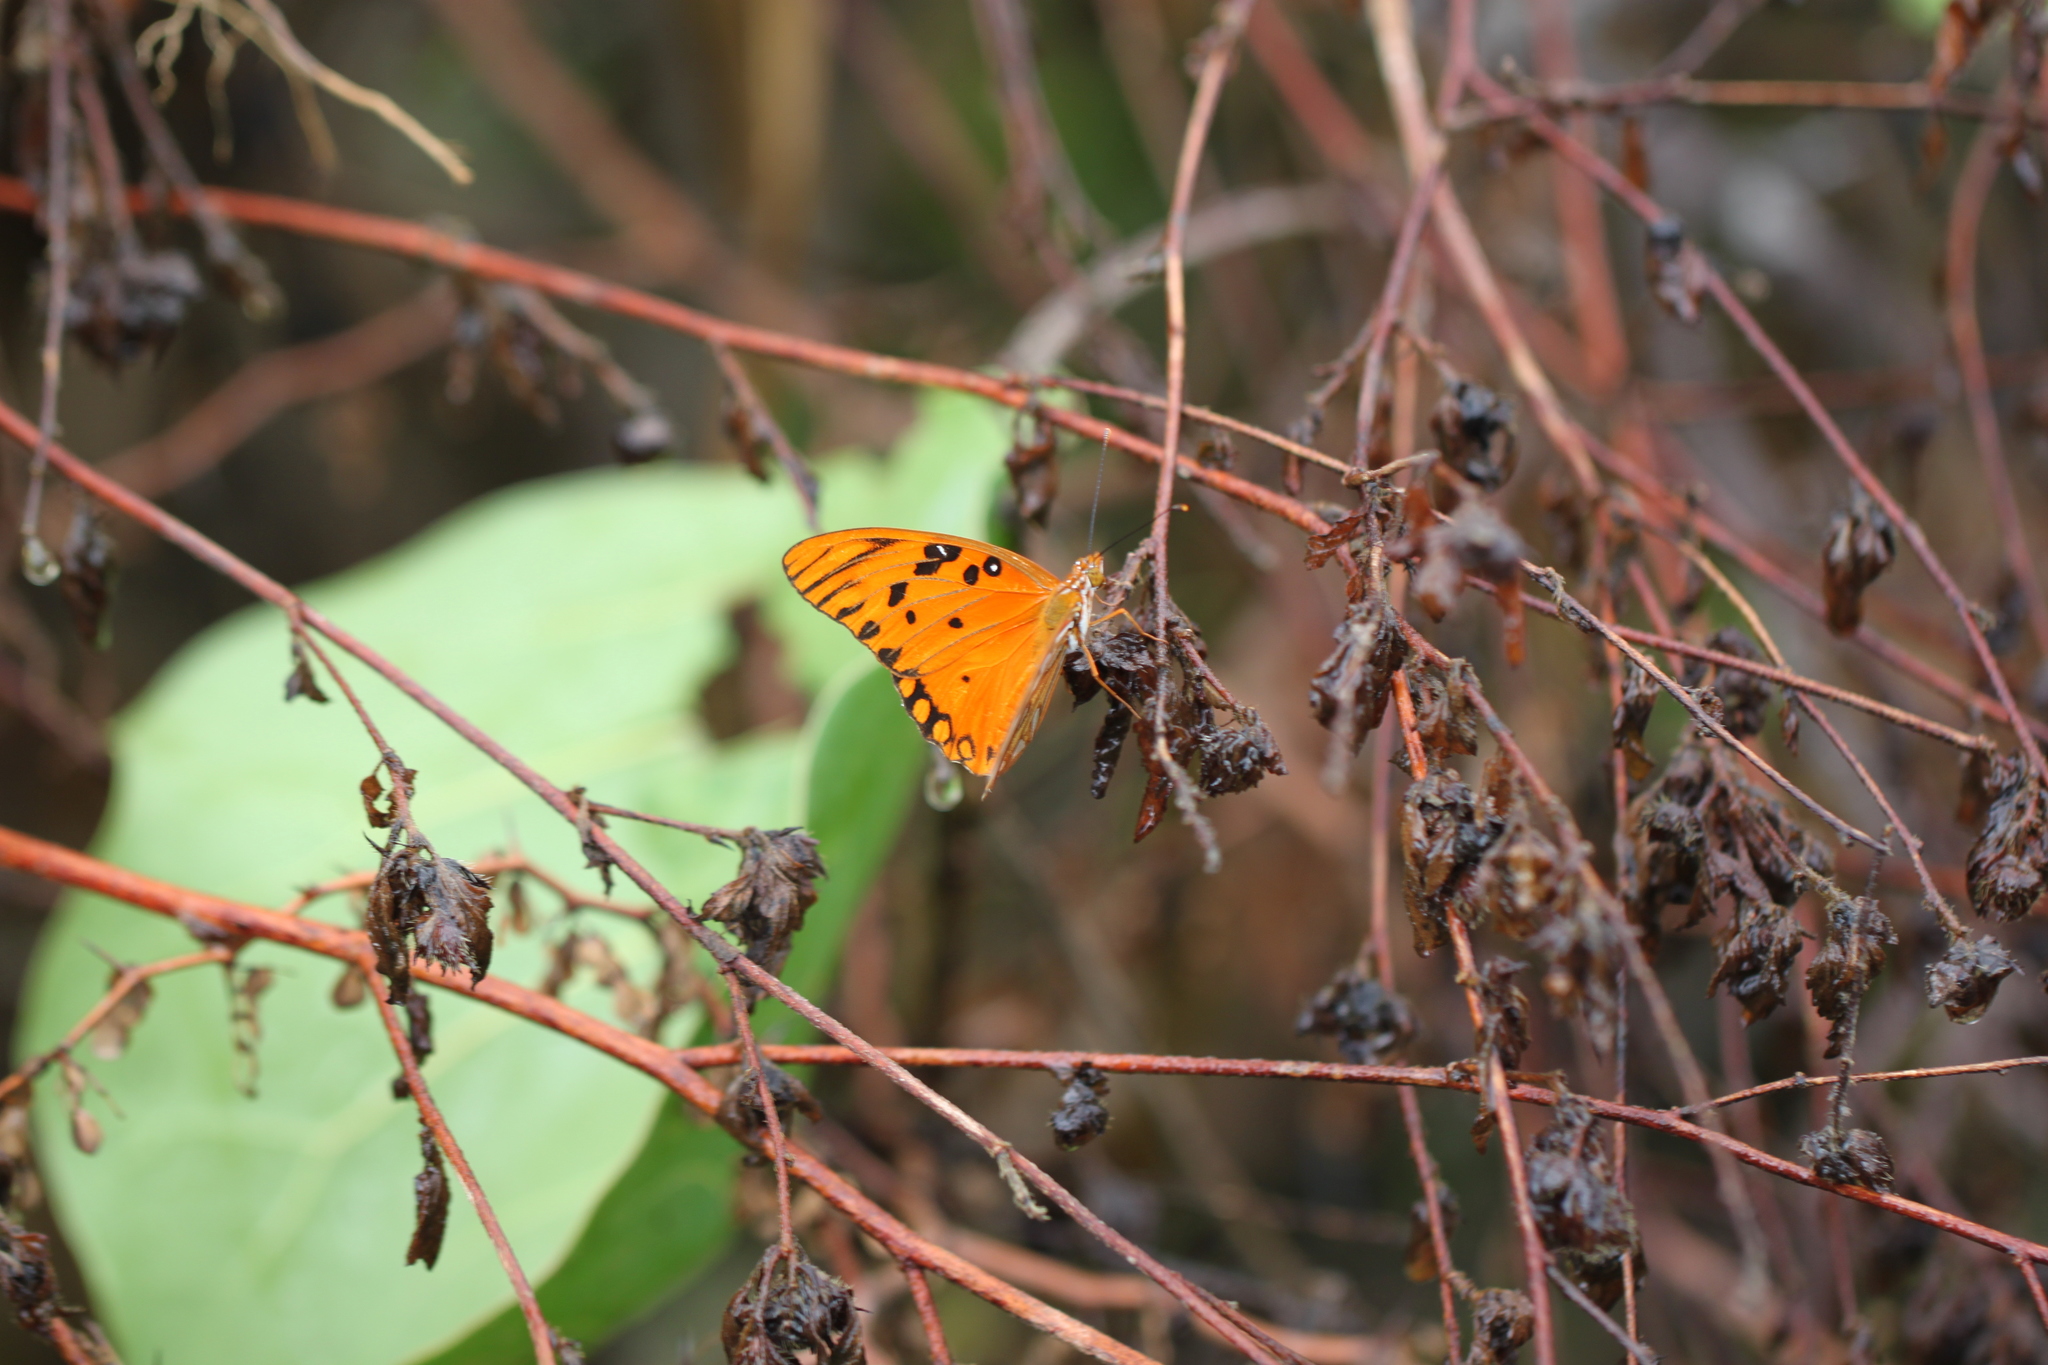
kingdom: Animalia
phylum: Arthropoda
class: Insecta
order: Lepidoptera
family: Nymphalidae
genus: Dione
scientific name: Dione vanillae
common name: Gulf fritillary
